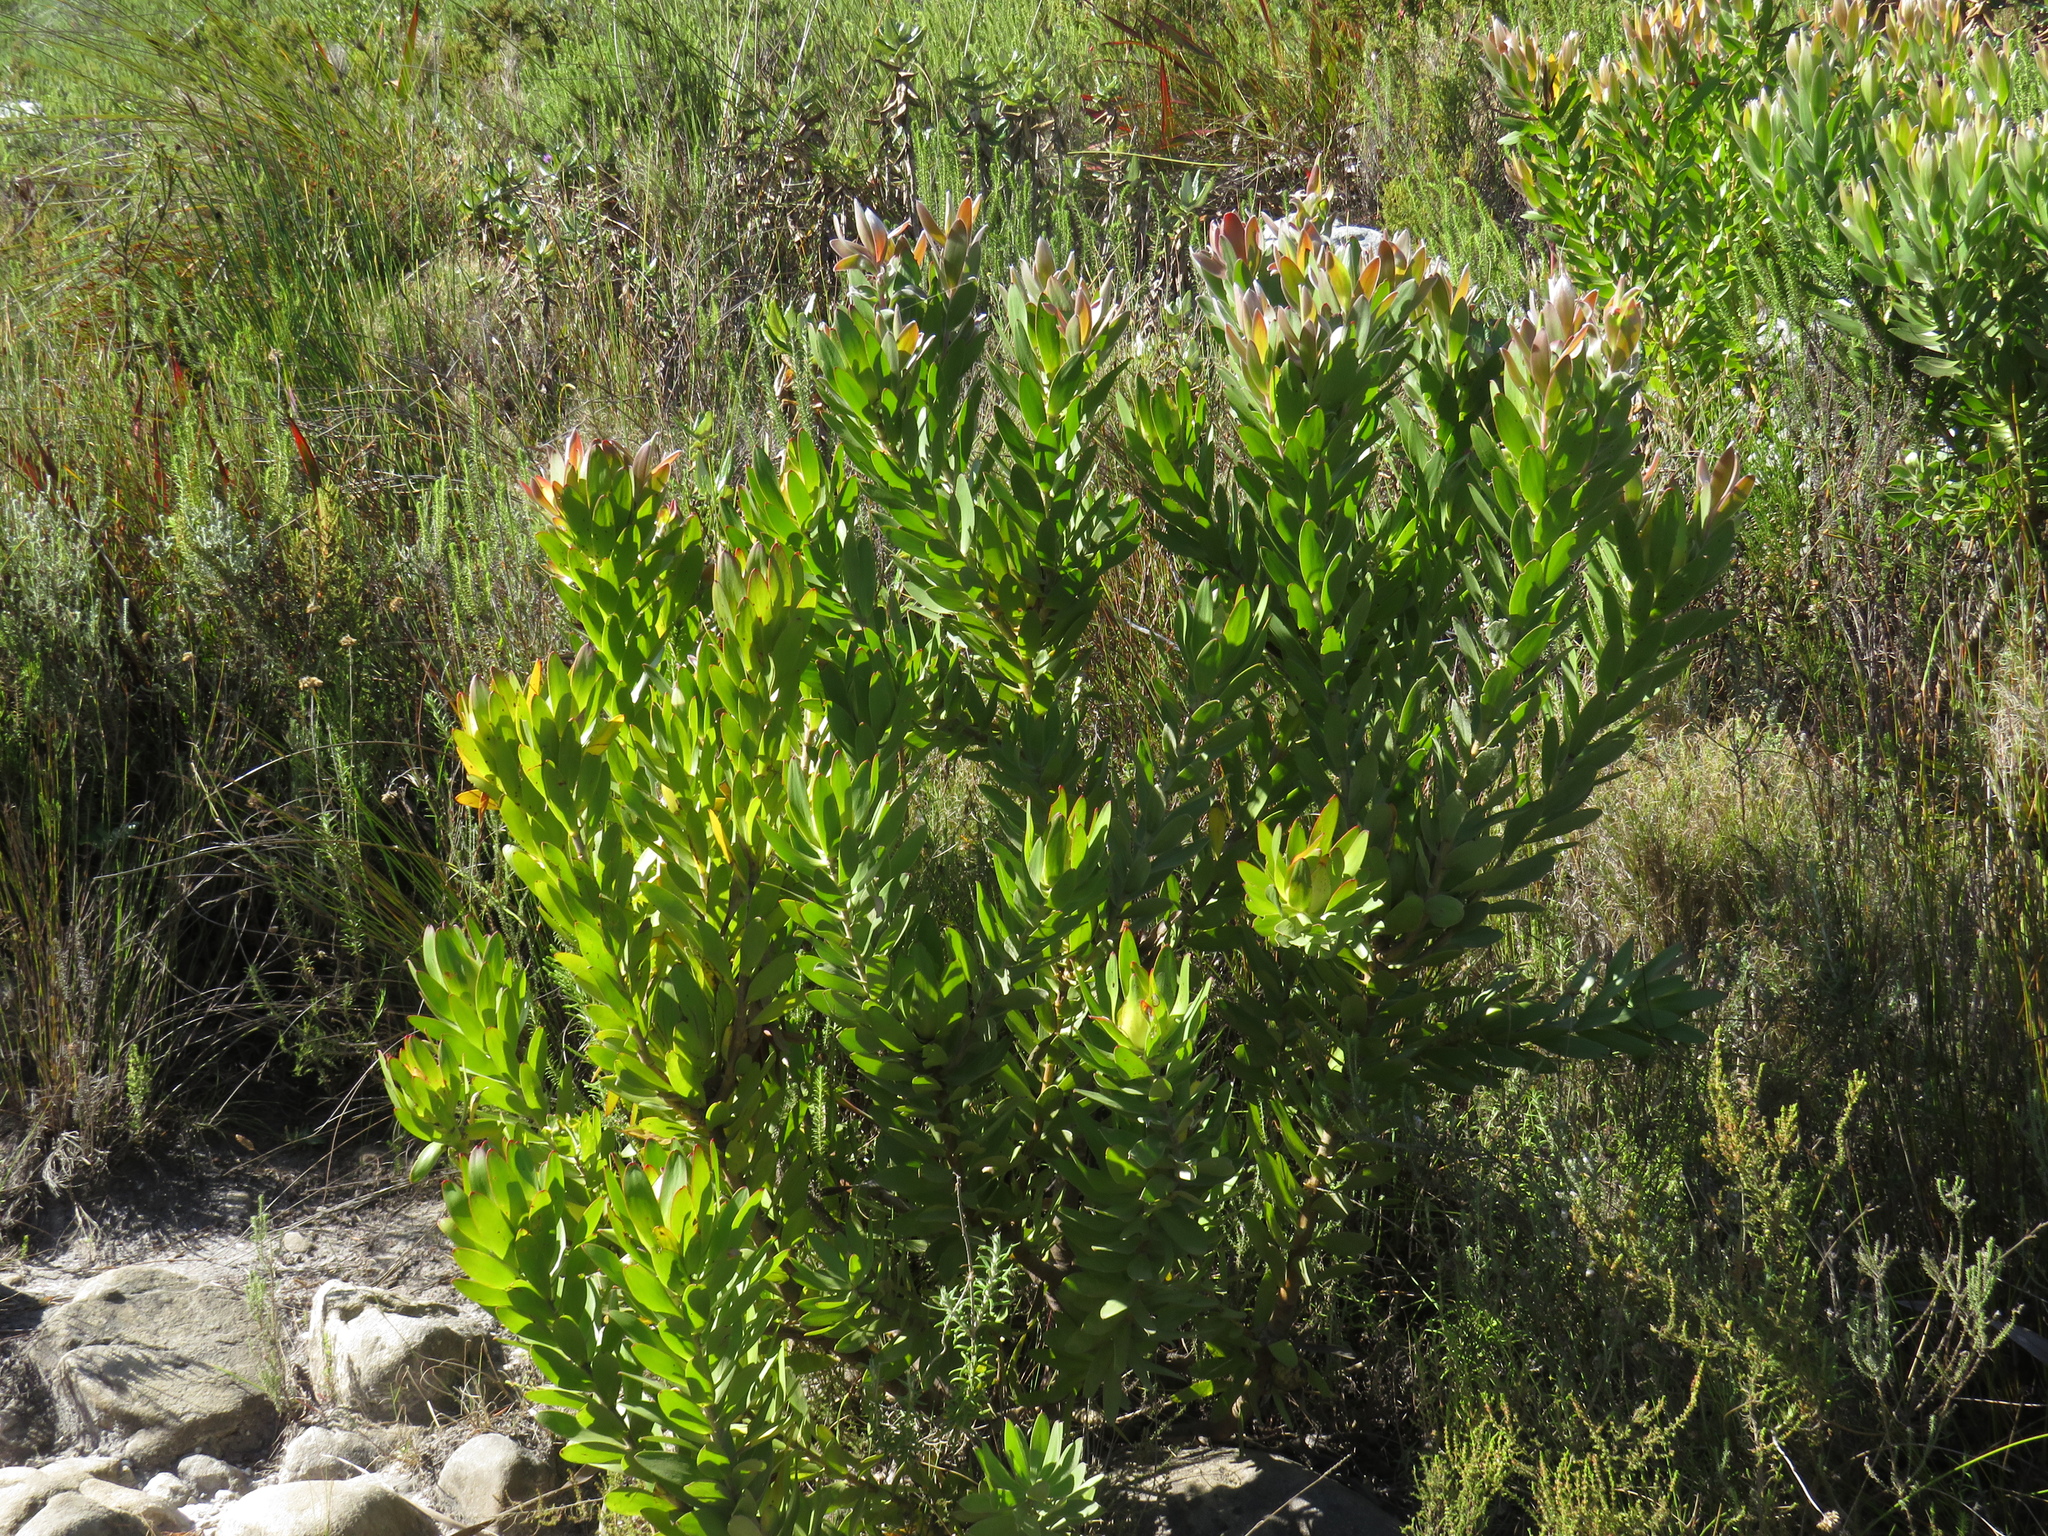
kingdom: Plantae
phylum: Tracheophyta
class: Magnoliopsida
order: Proteales
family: Proteaceae
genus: Leucadendron
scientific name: Leucadendron laureolum
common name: Golden sunshinebush
